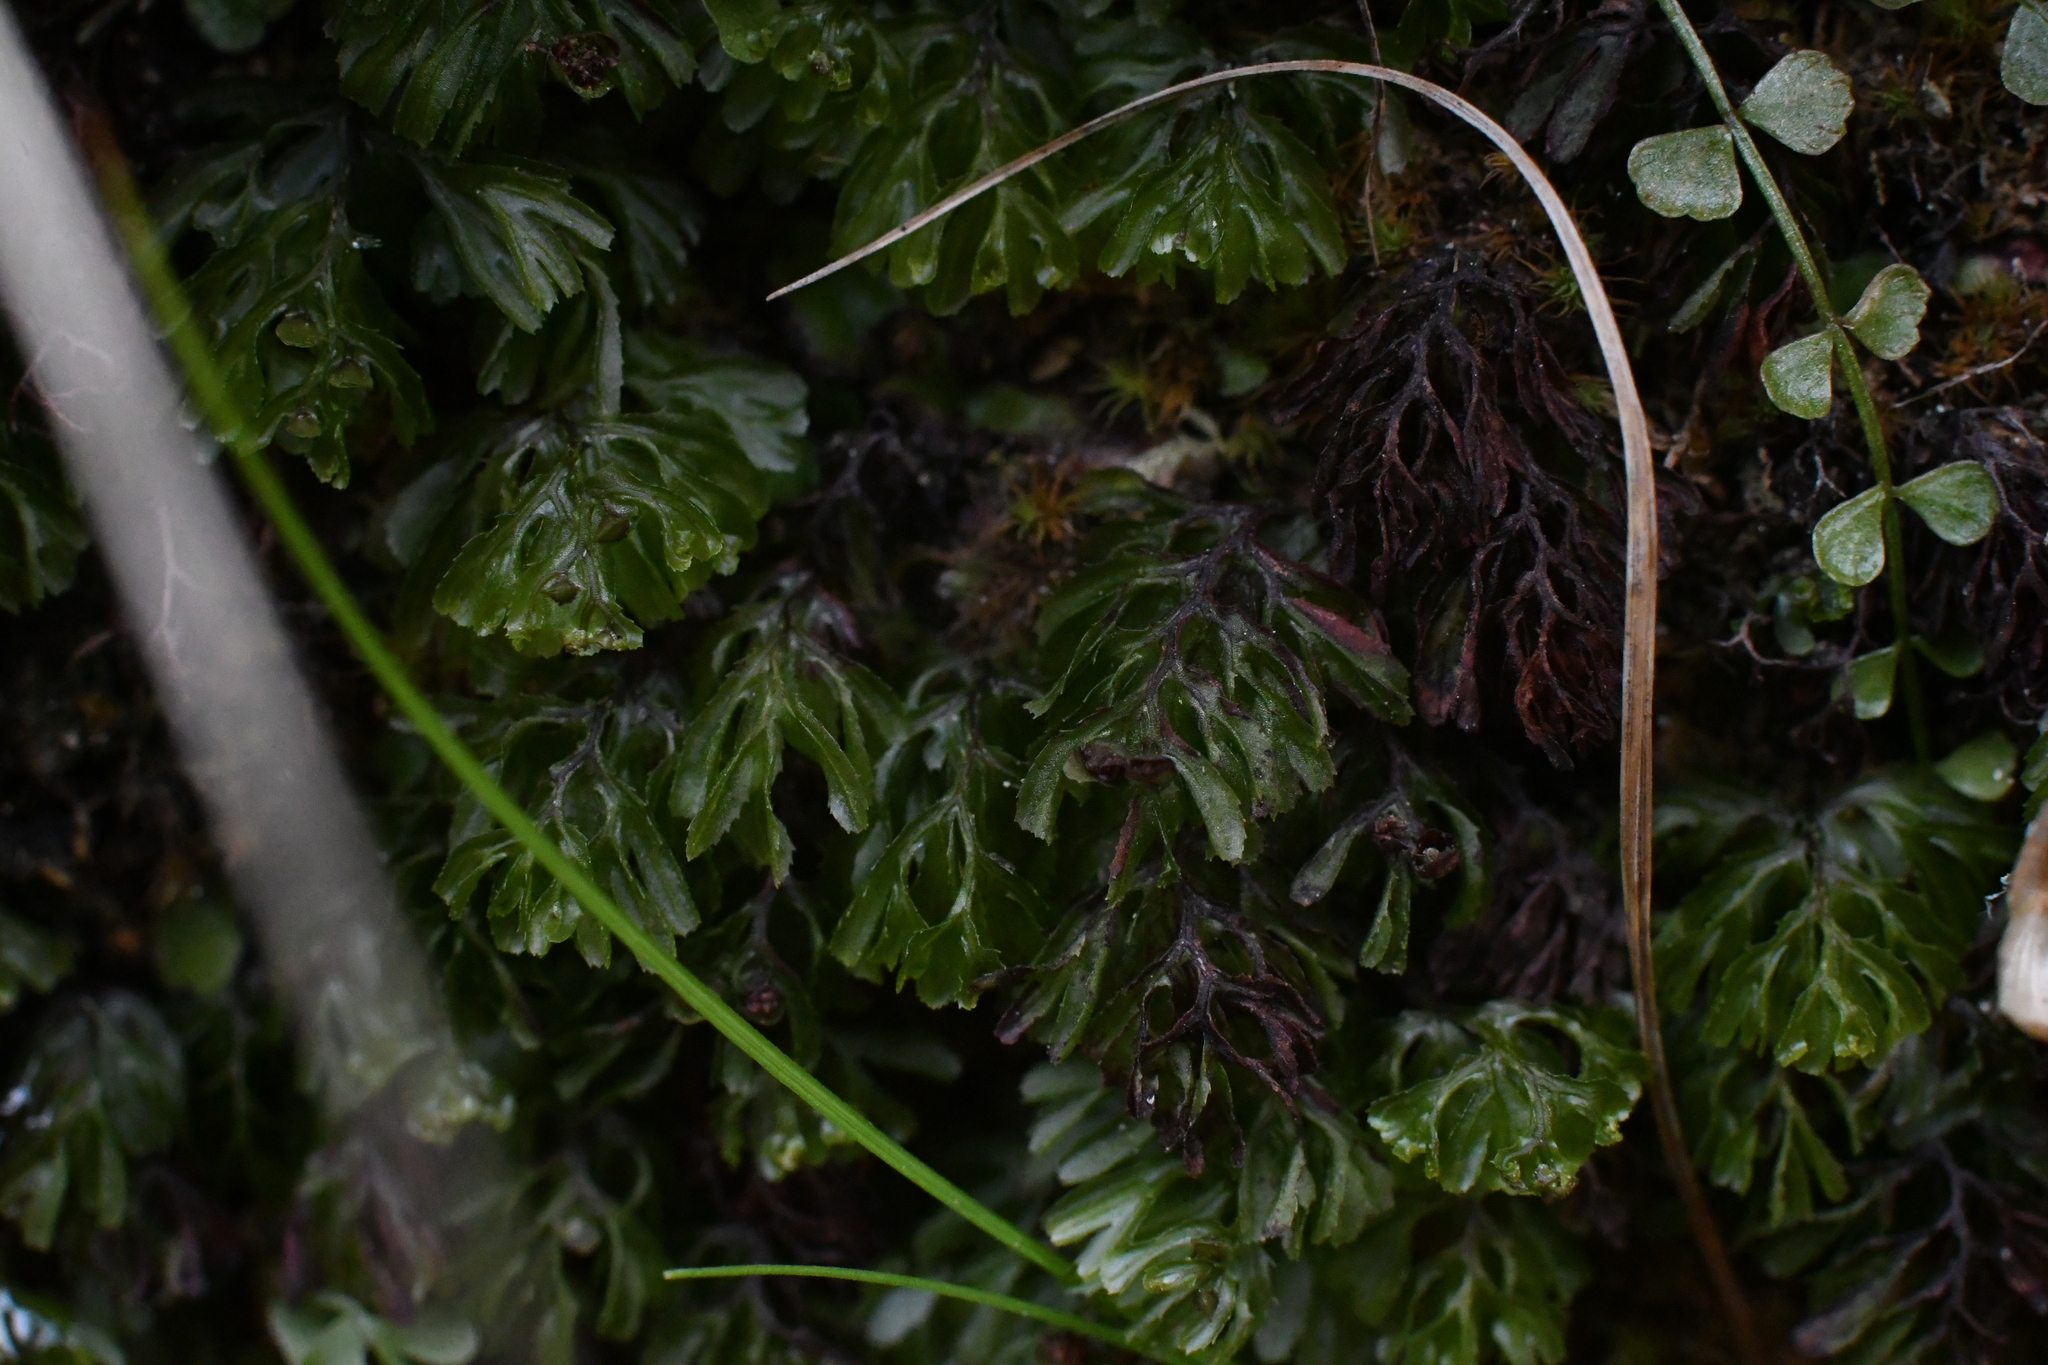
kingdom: Plantae
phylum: Tracheophyta
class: Polypodiopsida
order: Hymenophyllales
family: Hymenophyllaceae
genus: Hymenophyllum
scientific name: Hymenophyllum cupressiforme
